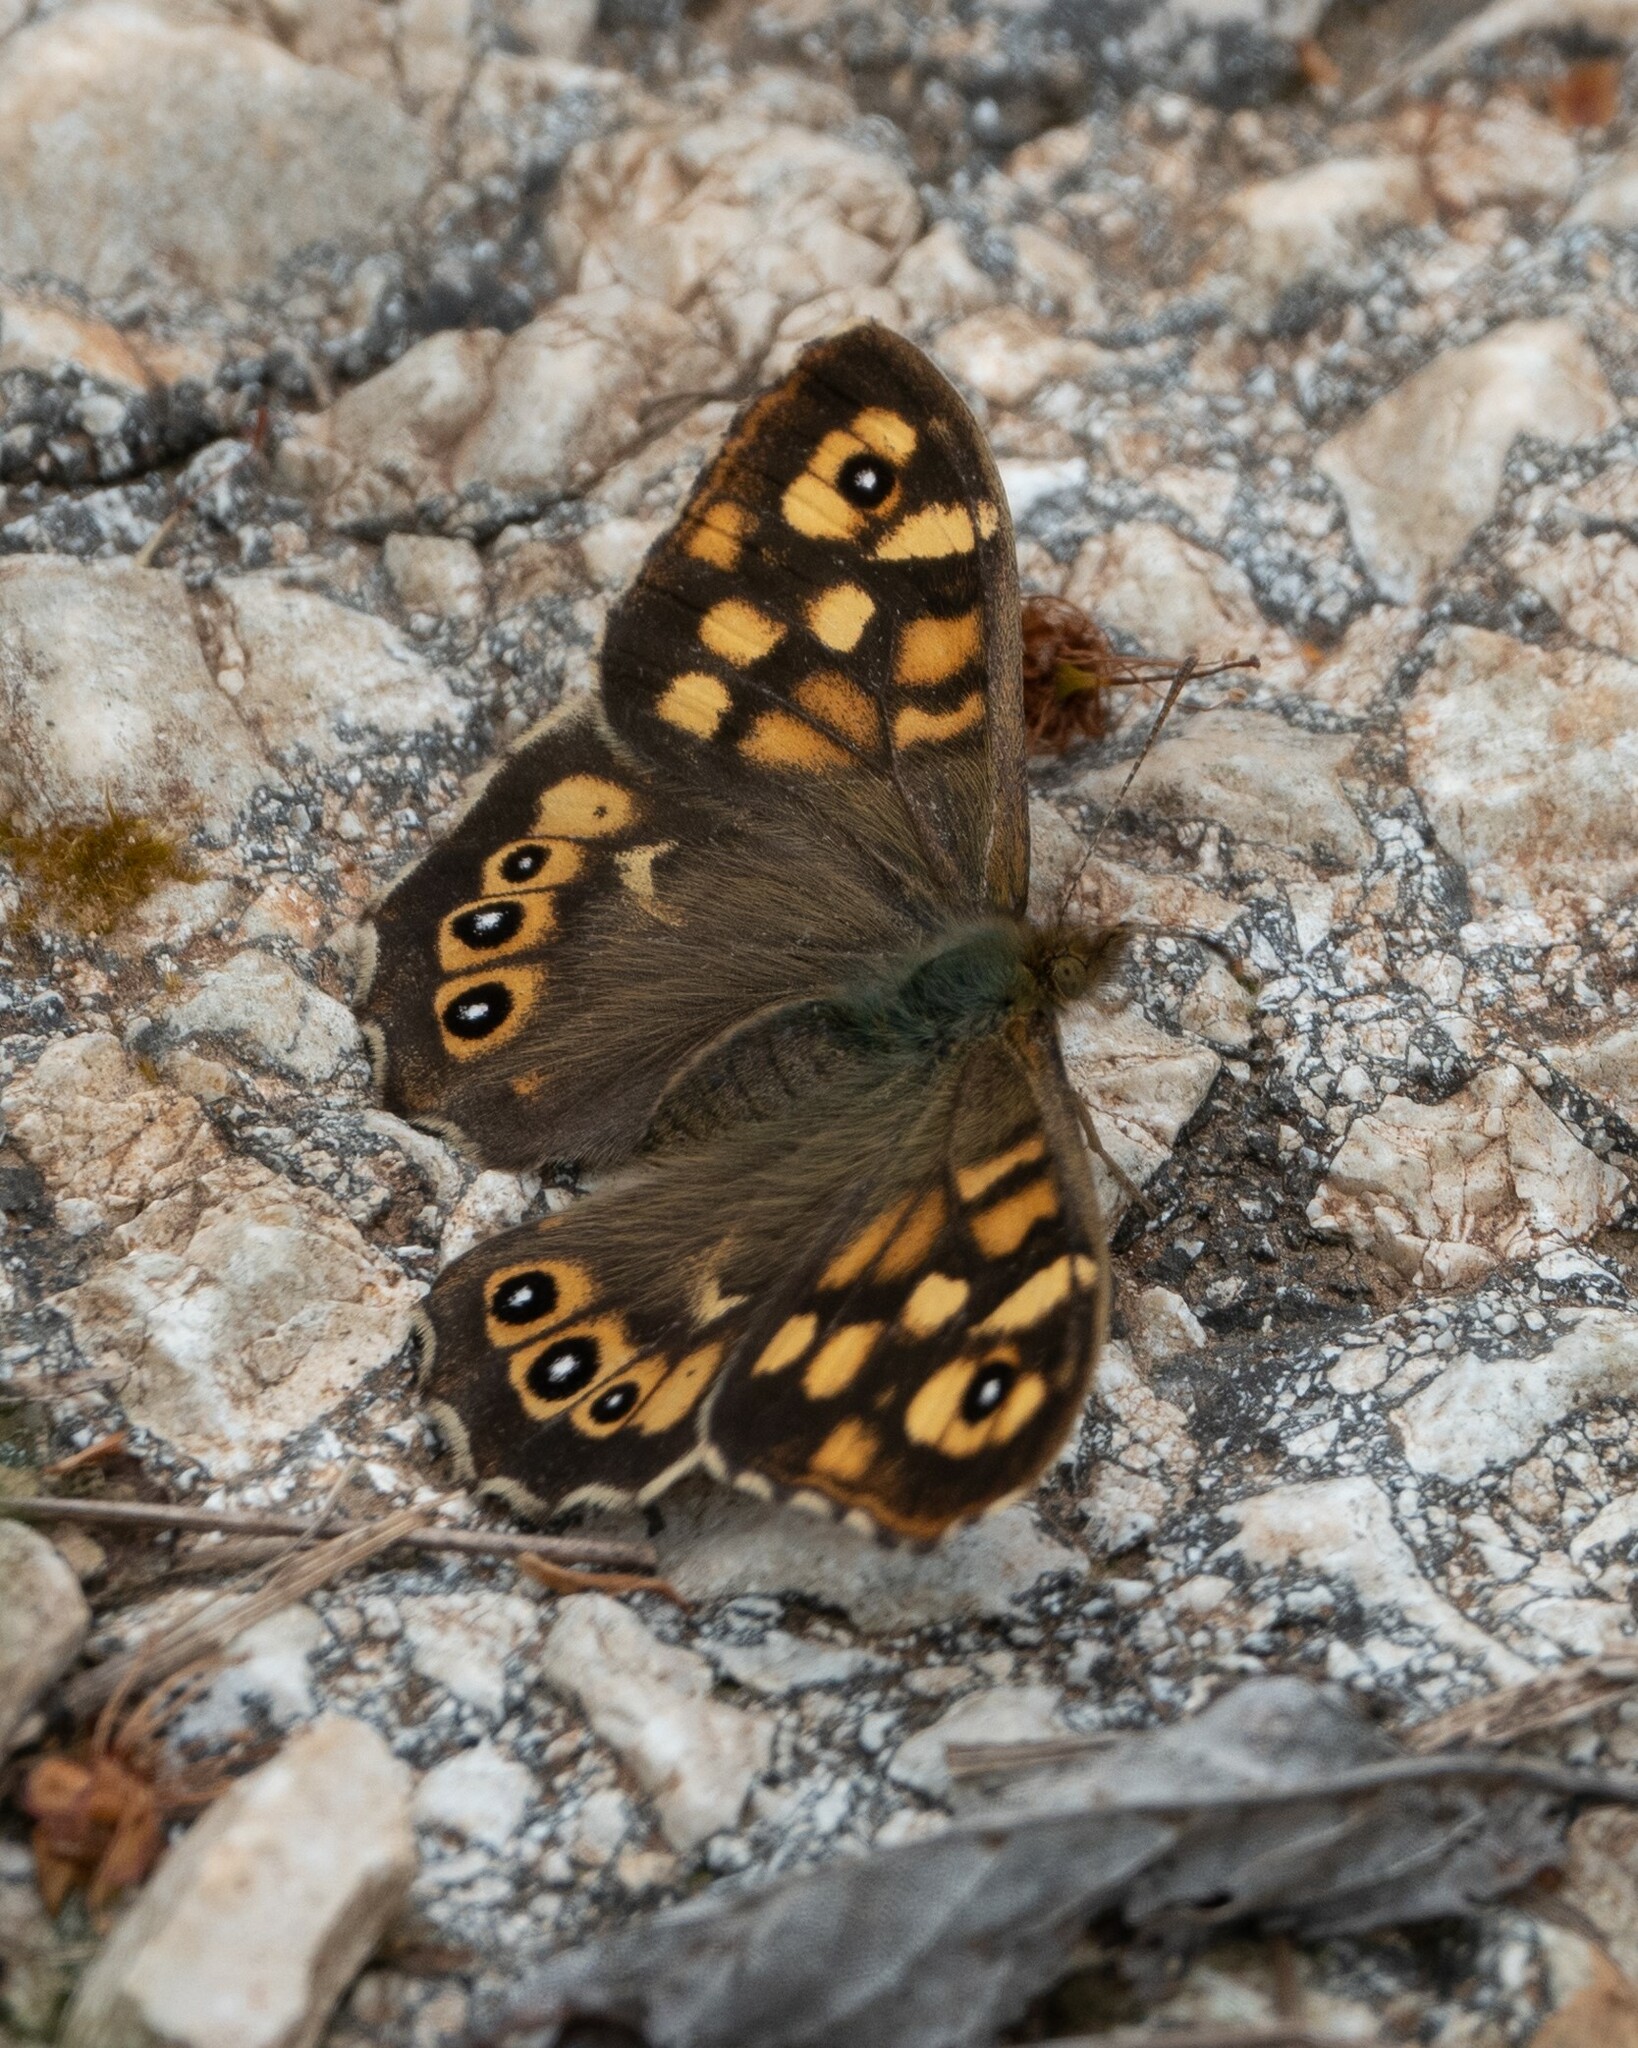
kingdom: Animalia
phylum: Arthropoda
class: Insecta
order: Lepidoptera
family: Nymphalidae
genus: Pararge
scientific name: Pararge aegeria
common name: Speckled wood
